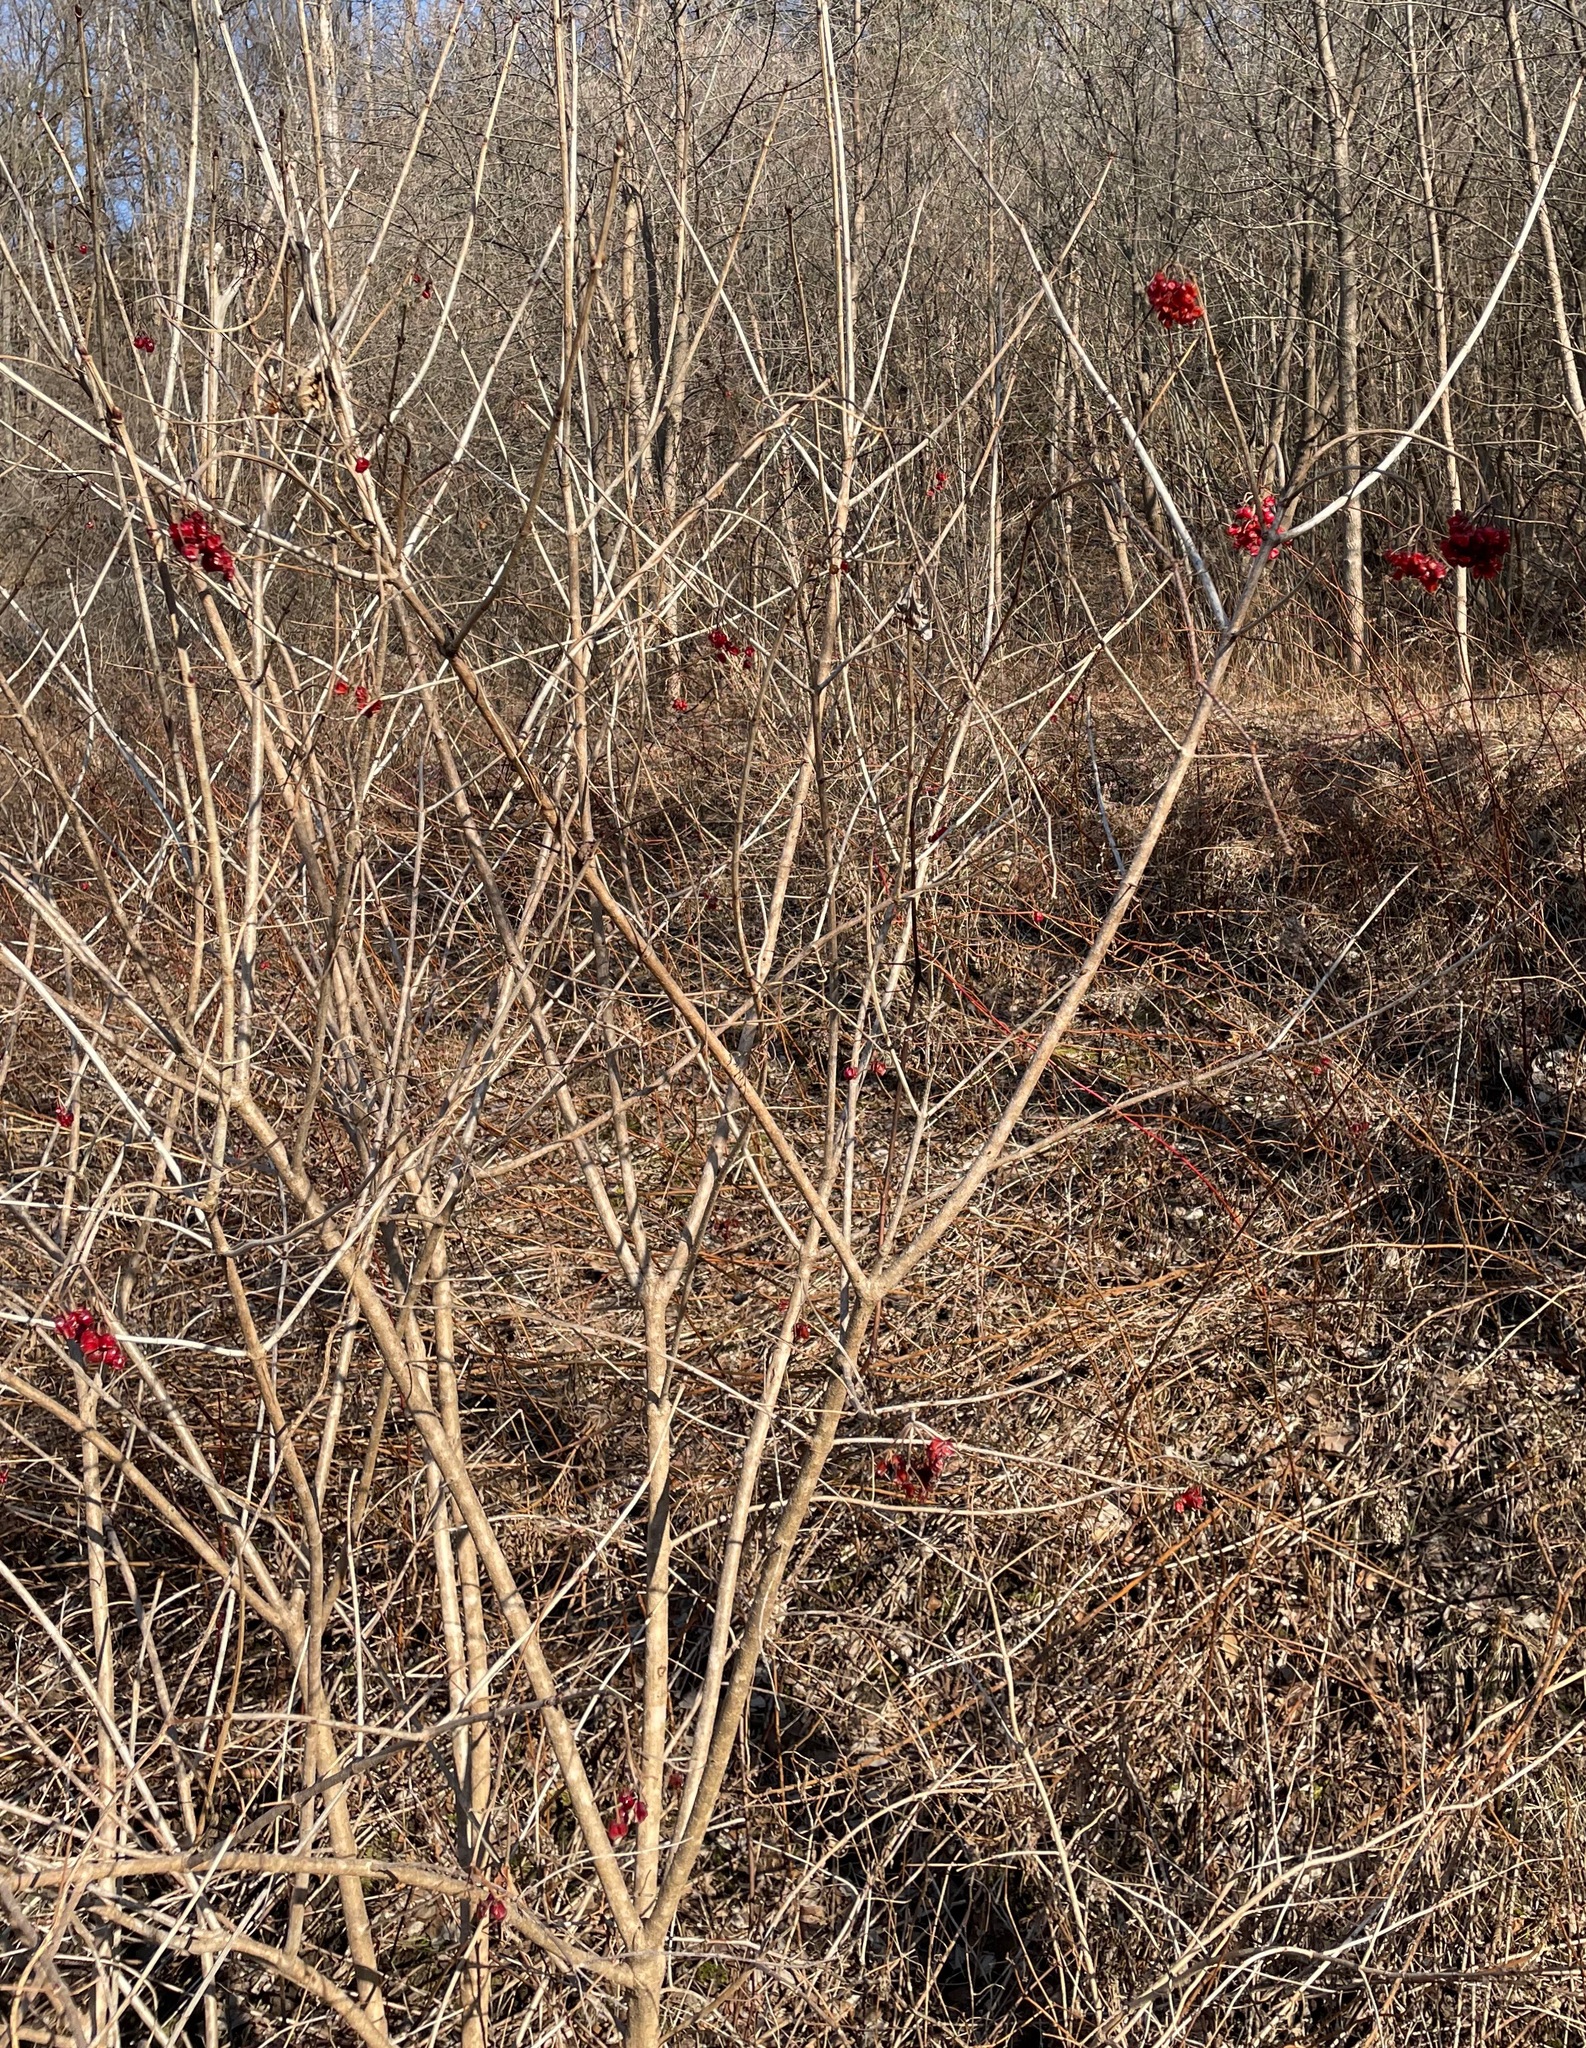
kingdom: Plantae
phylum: Tracheophyta
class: Magnoliopsida
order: Dipsacales
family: Viburnaceae
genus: Viburnum
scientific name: Viburnum opulus
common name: Guelder-rose
